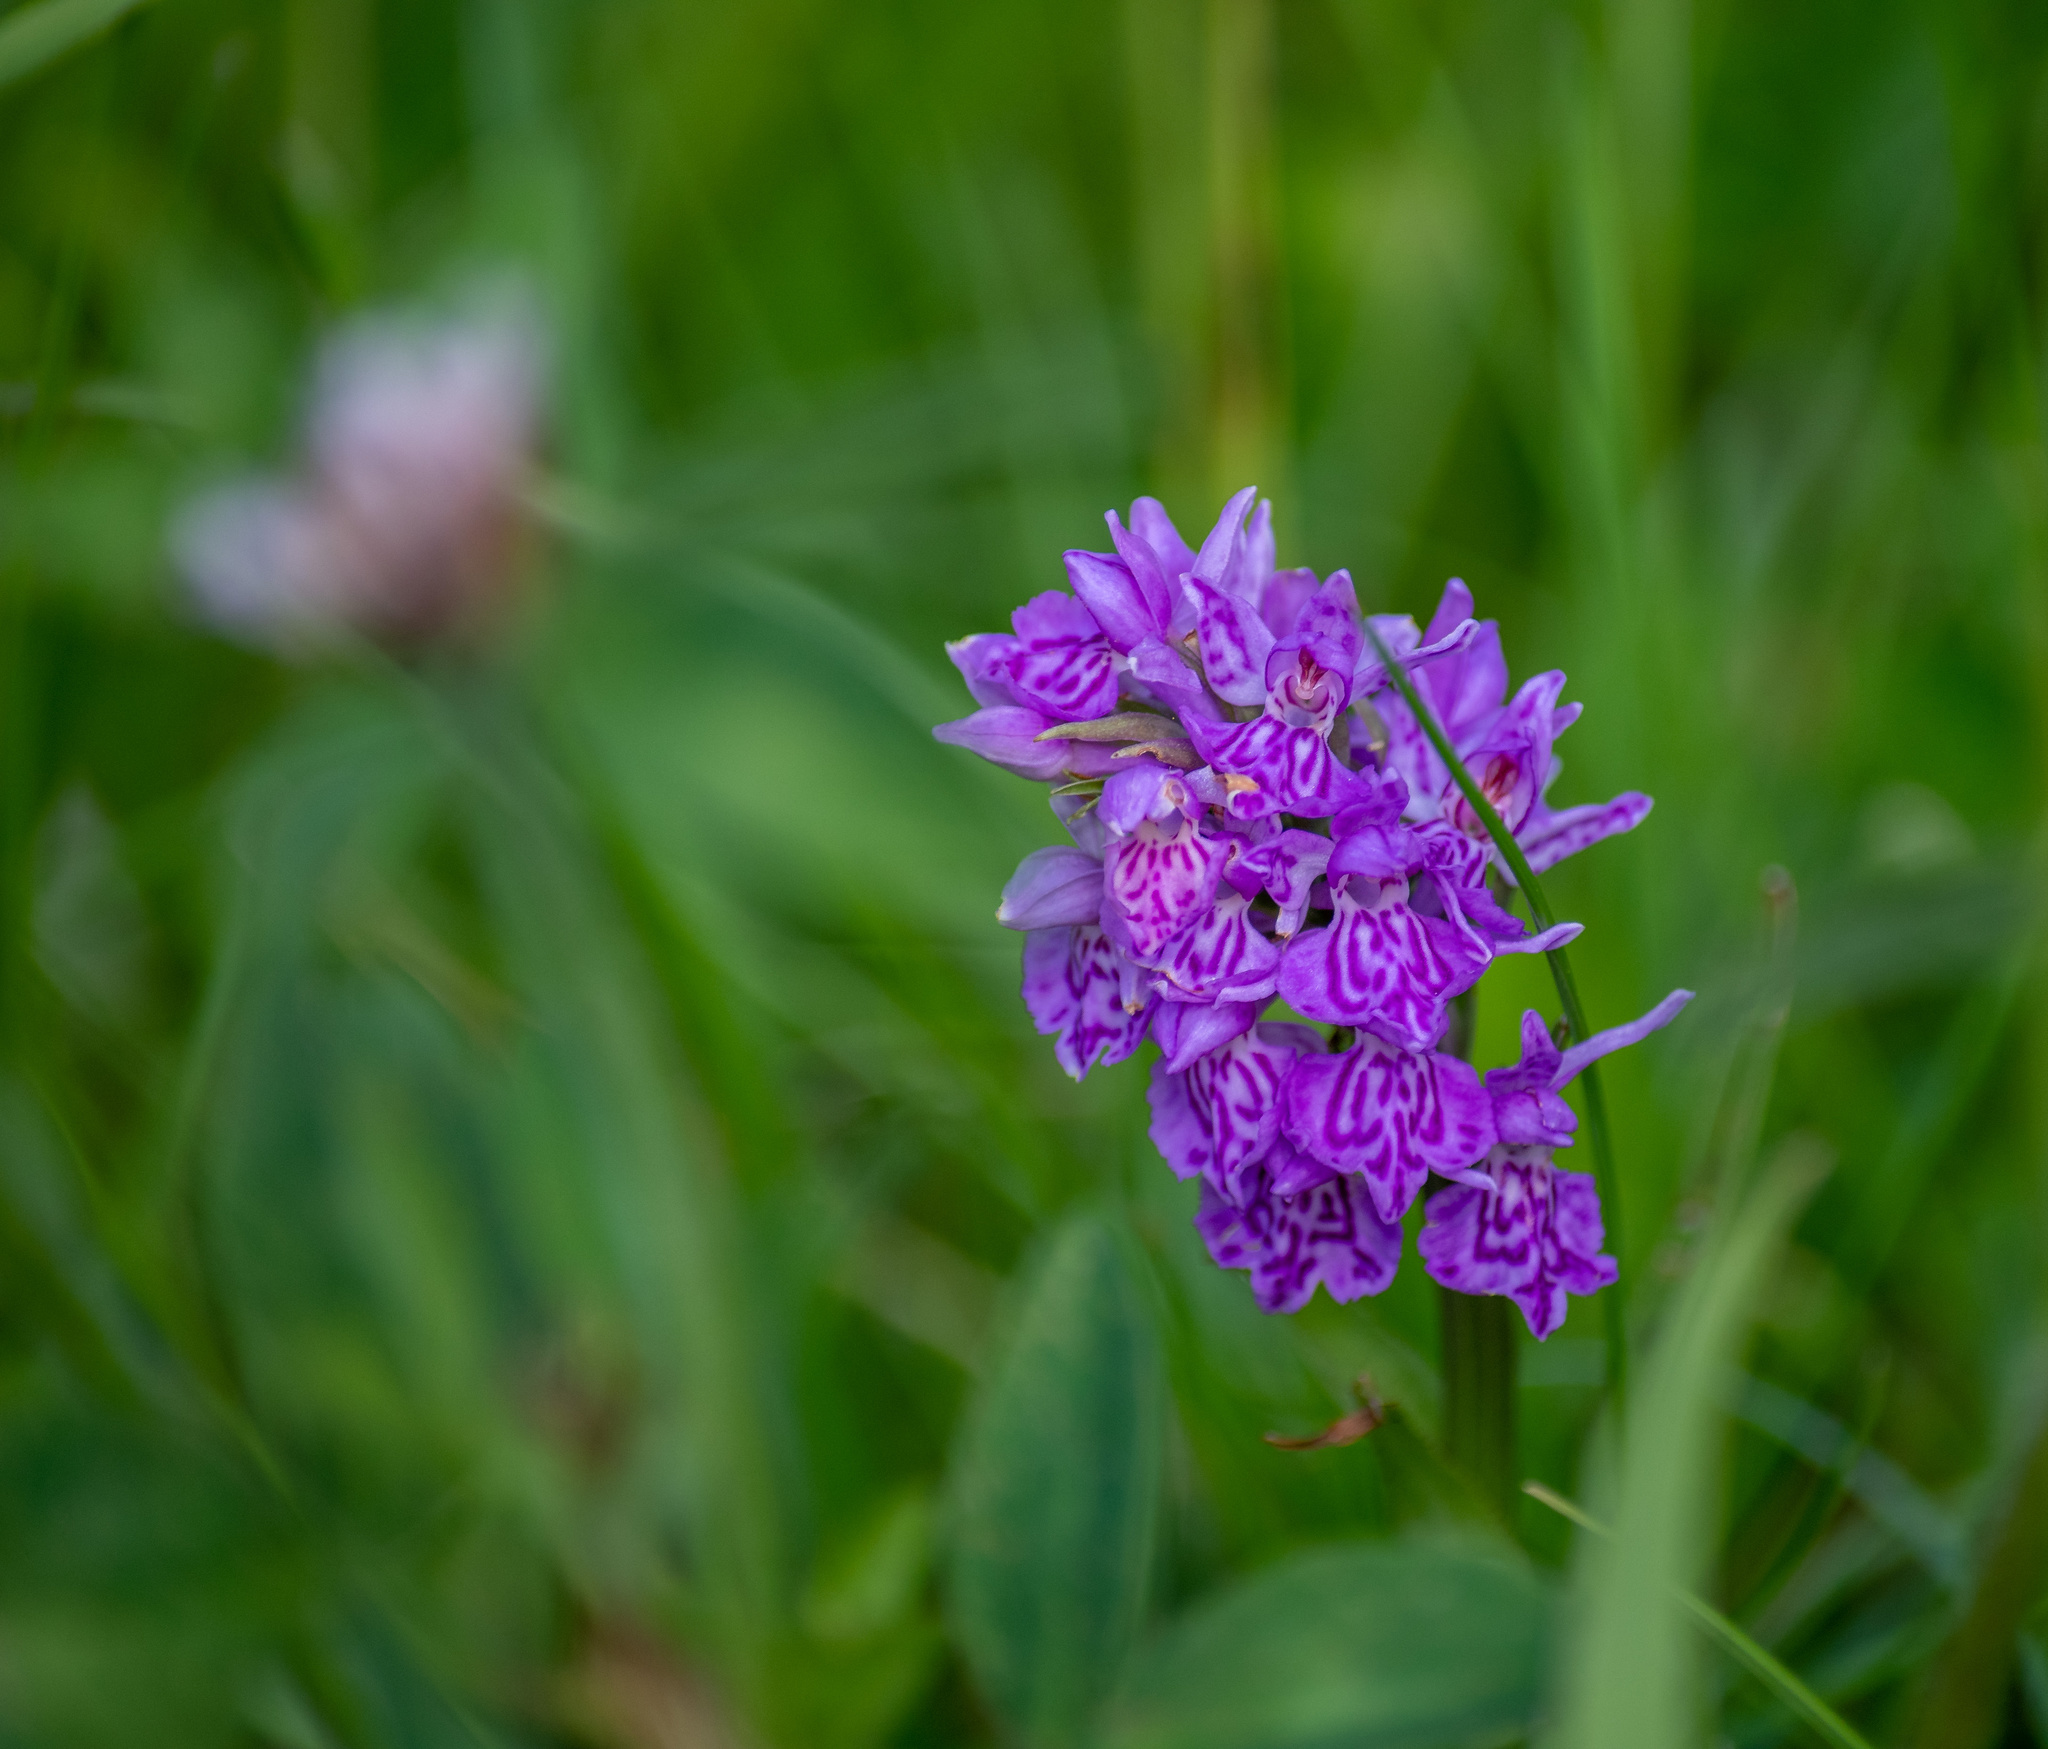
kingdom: Plantae
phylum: Tracheophyta
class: Liliopsida
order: Asparagales
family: Orchidaceae
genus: Dactylorhiza
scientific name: Dactylorhiza majalis
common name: Marsh orchid
